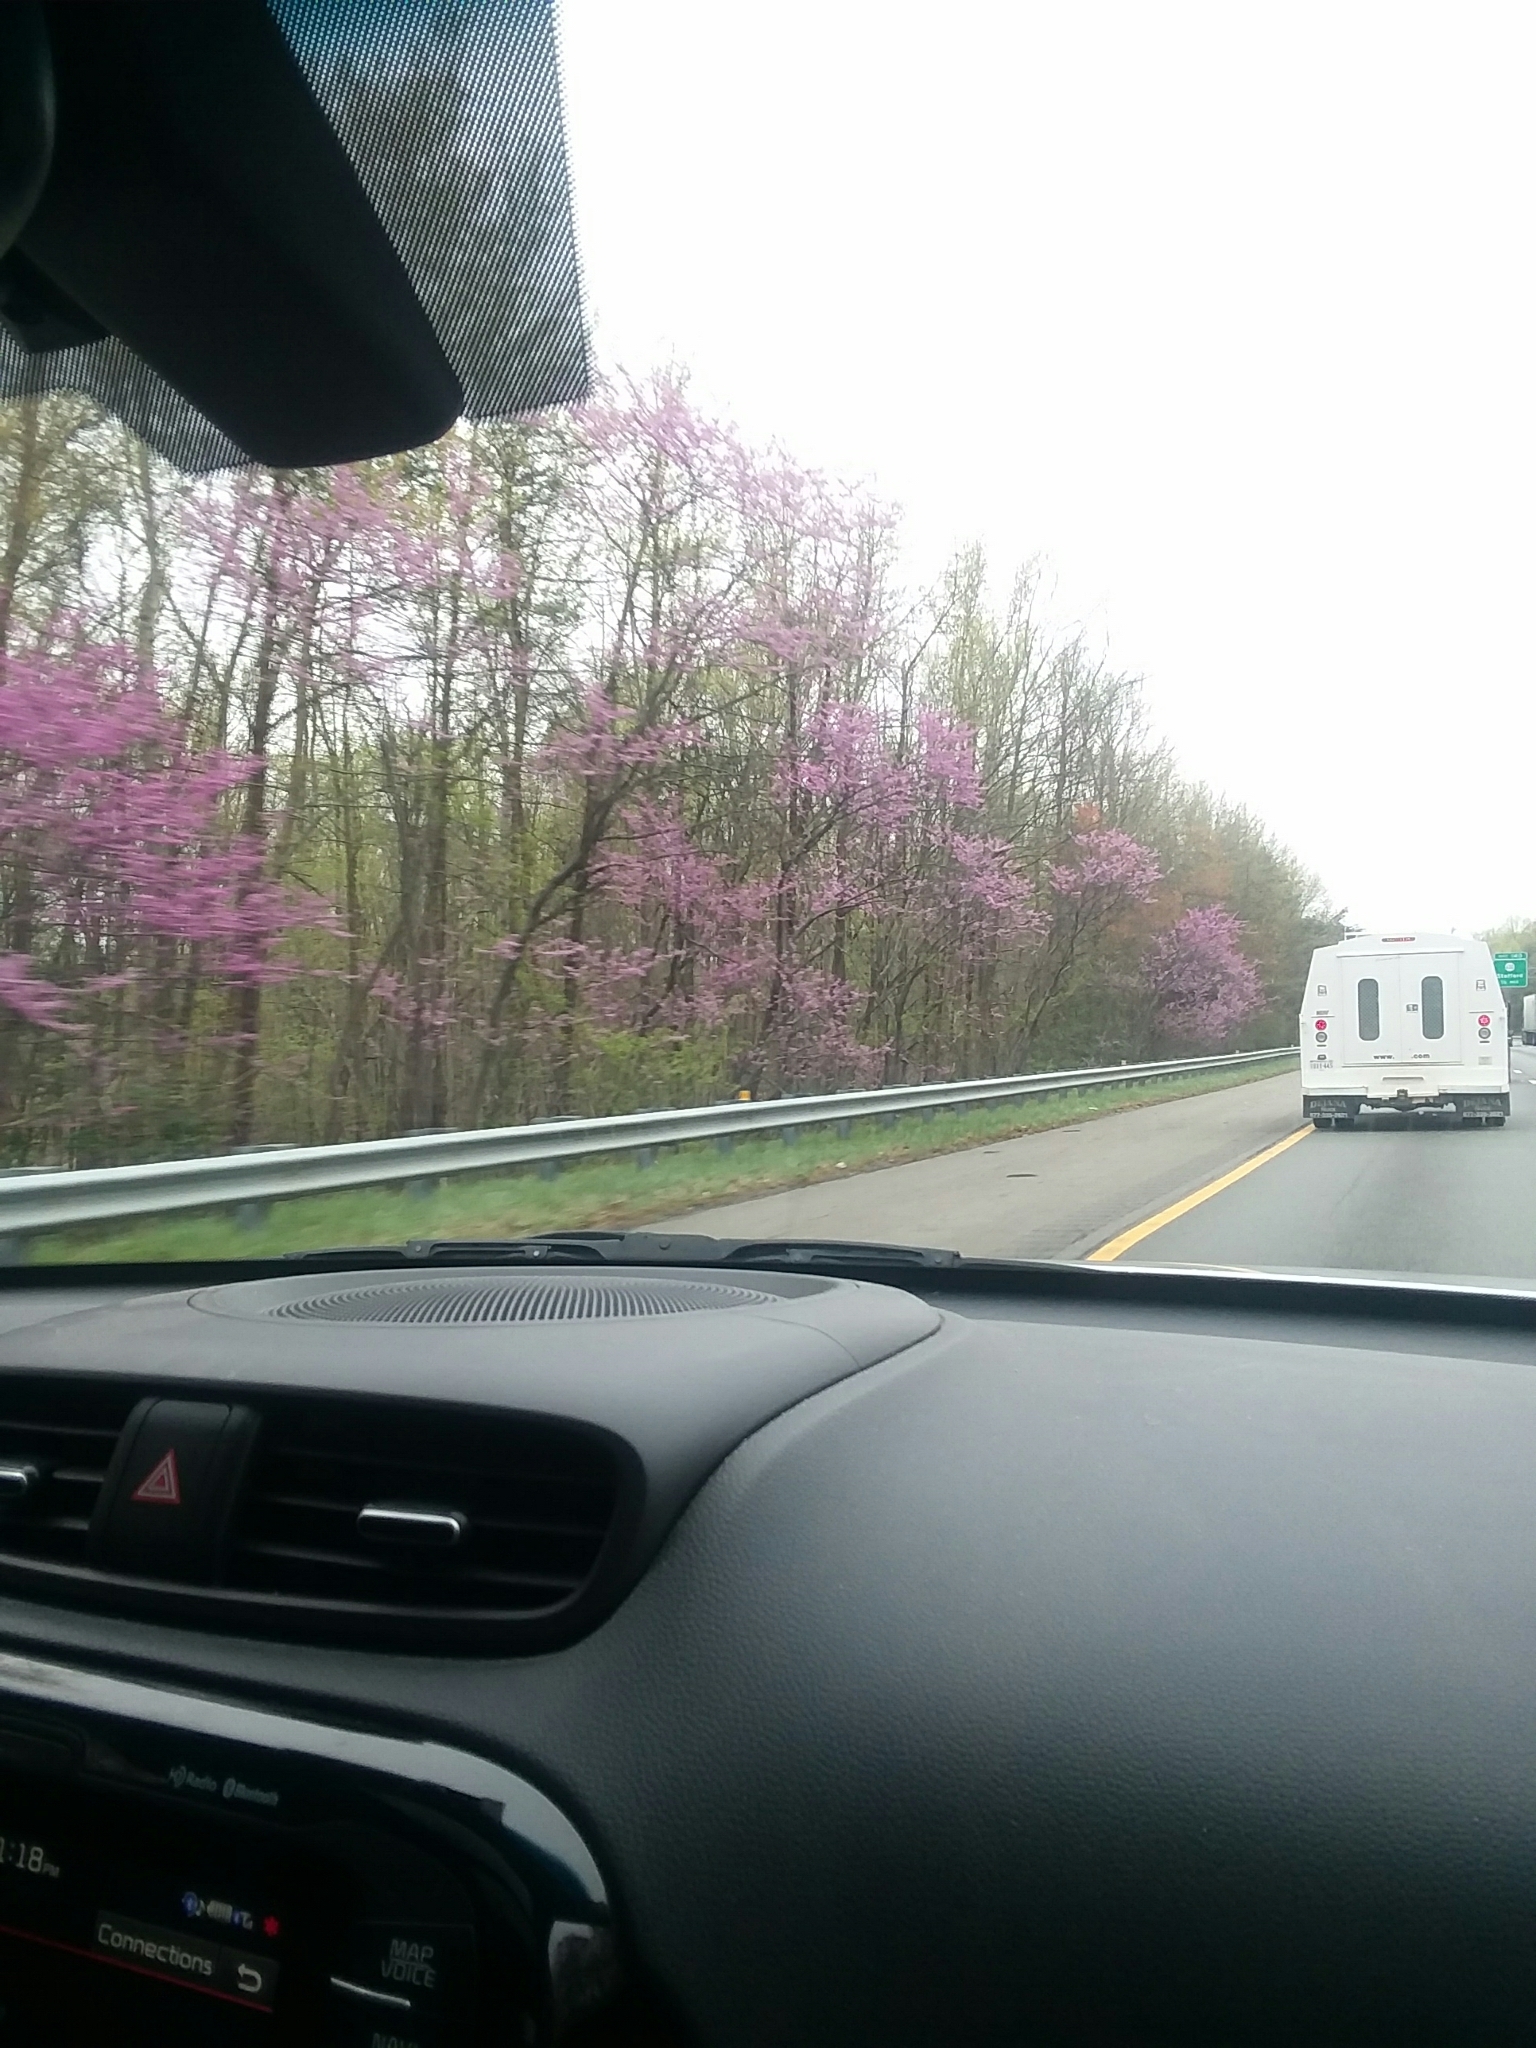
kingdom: Plantae
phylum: Tracheophyta
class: Magnoliopsida
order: Fabales
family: Fabaceae
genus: Cercis
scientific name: Cercis canadensis
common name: Eastern redbud
